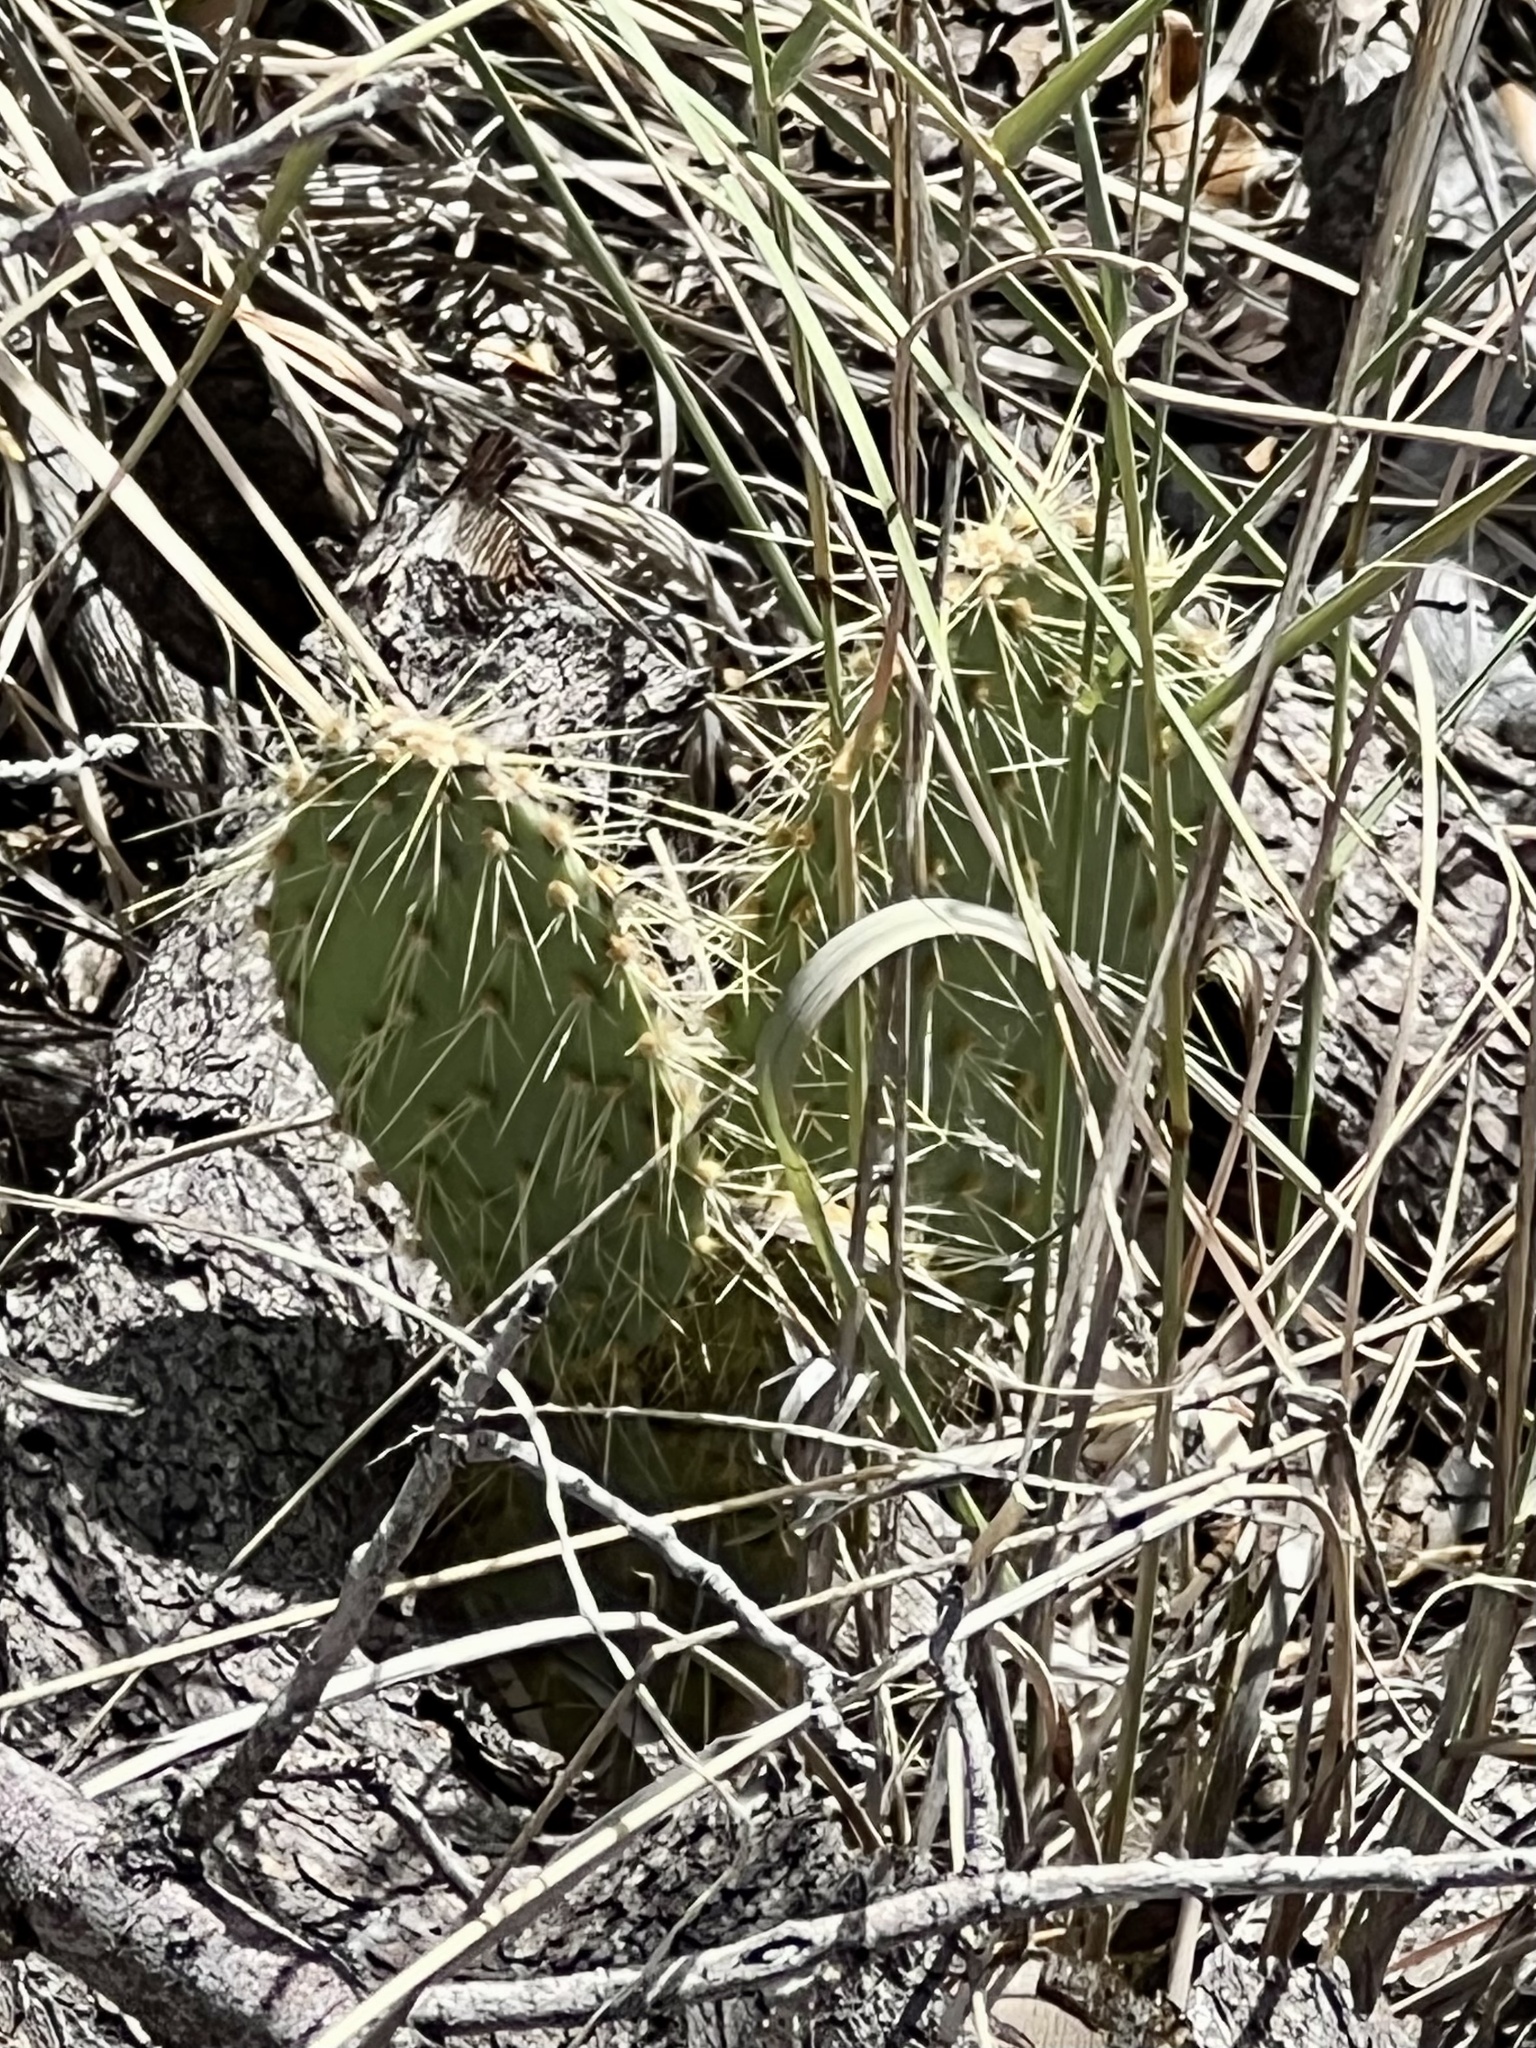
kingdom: Plantae
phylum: Tracheophyta
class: Magnoliopsida
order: Caryophyllales
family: Cactaceae
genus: Opuntia
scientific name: Opuntia chlorotica
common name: Dollar-joint prickly-pear
